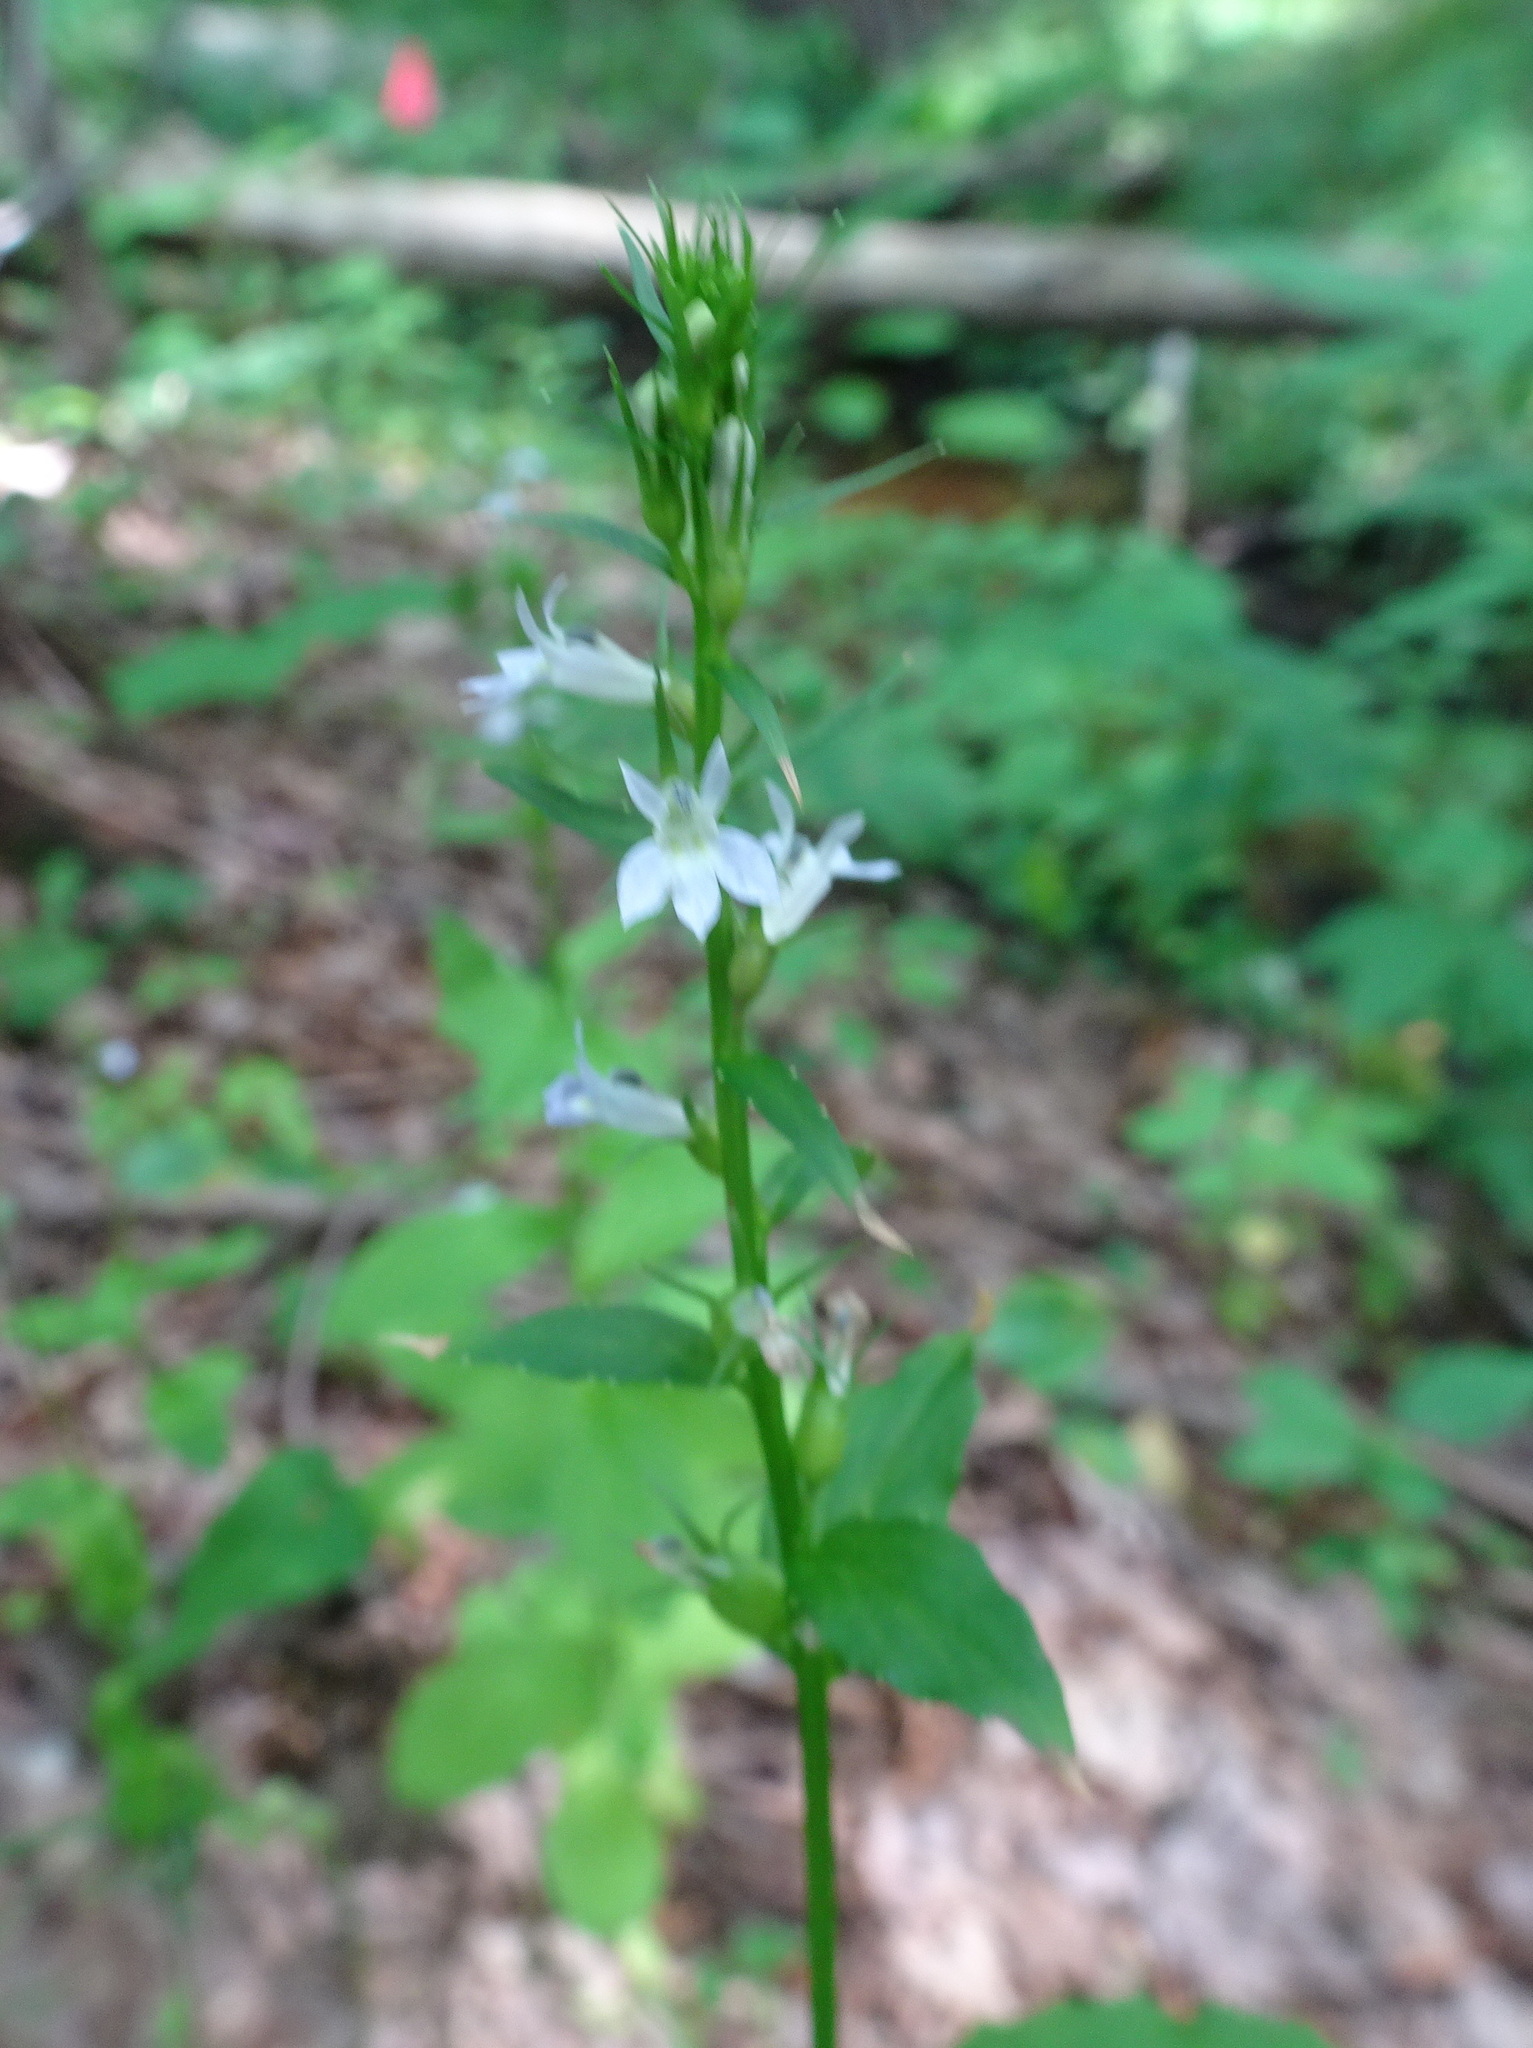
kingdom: Plantae
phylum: Tracheophyta
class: Magnoliopsida
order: Asterales
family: Campanulaceae
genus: Lobelia
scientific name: Lobelia inflata
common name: Indian tobacco
